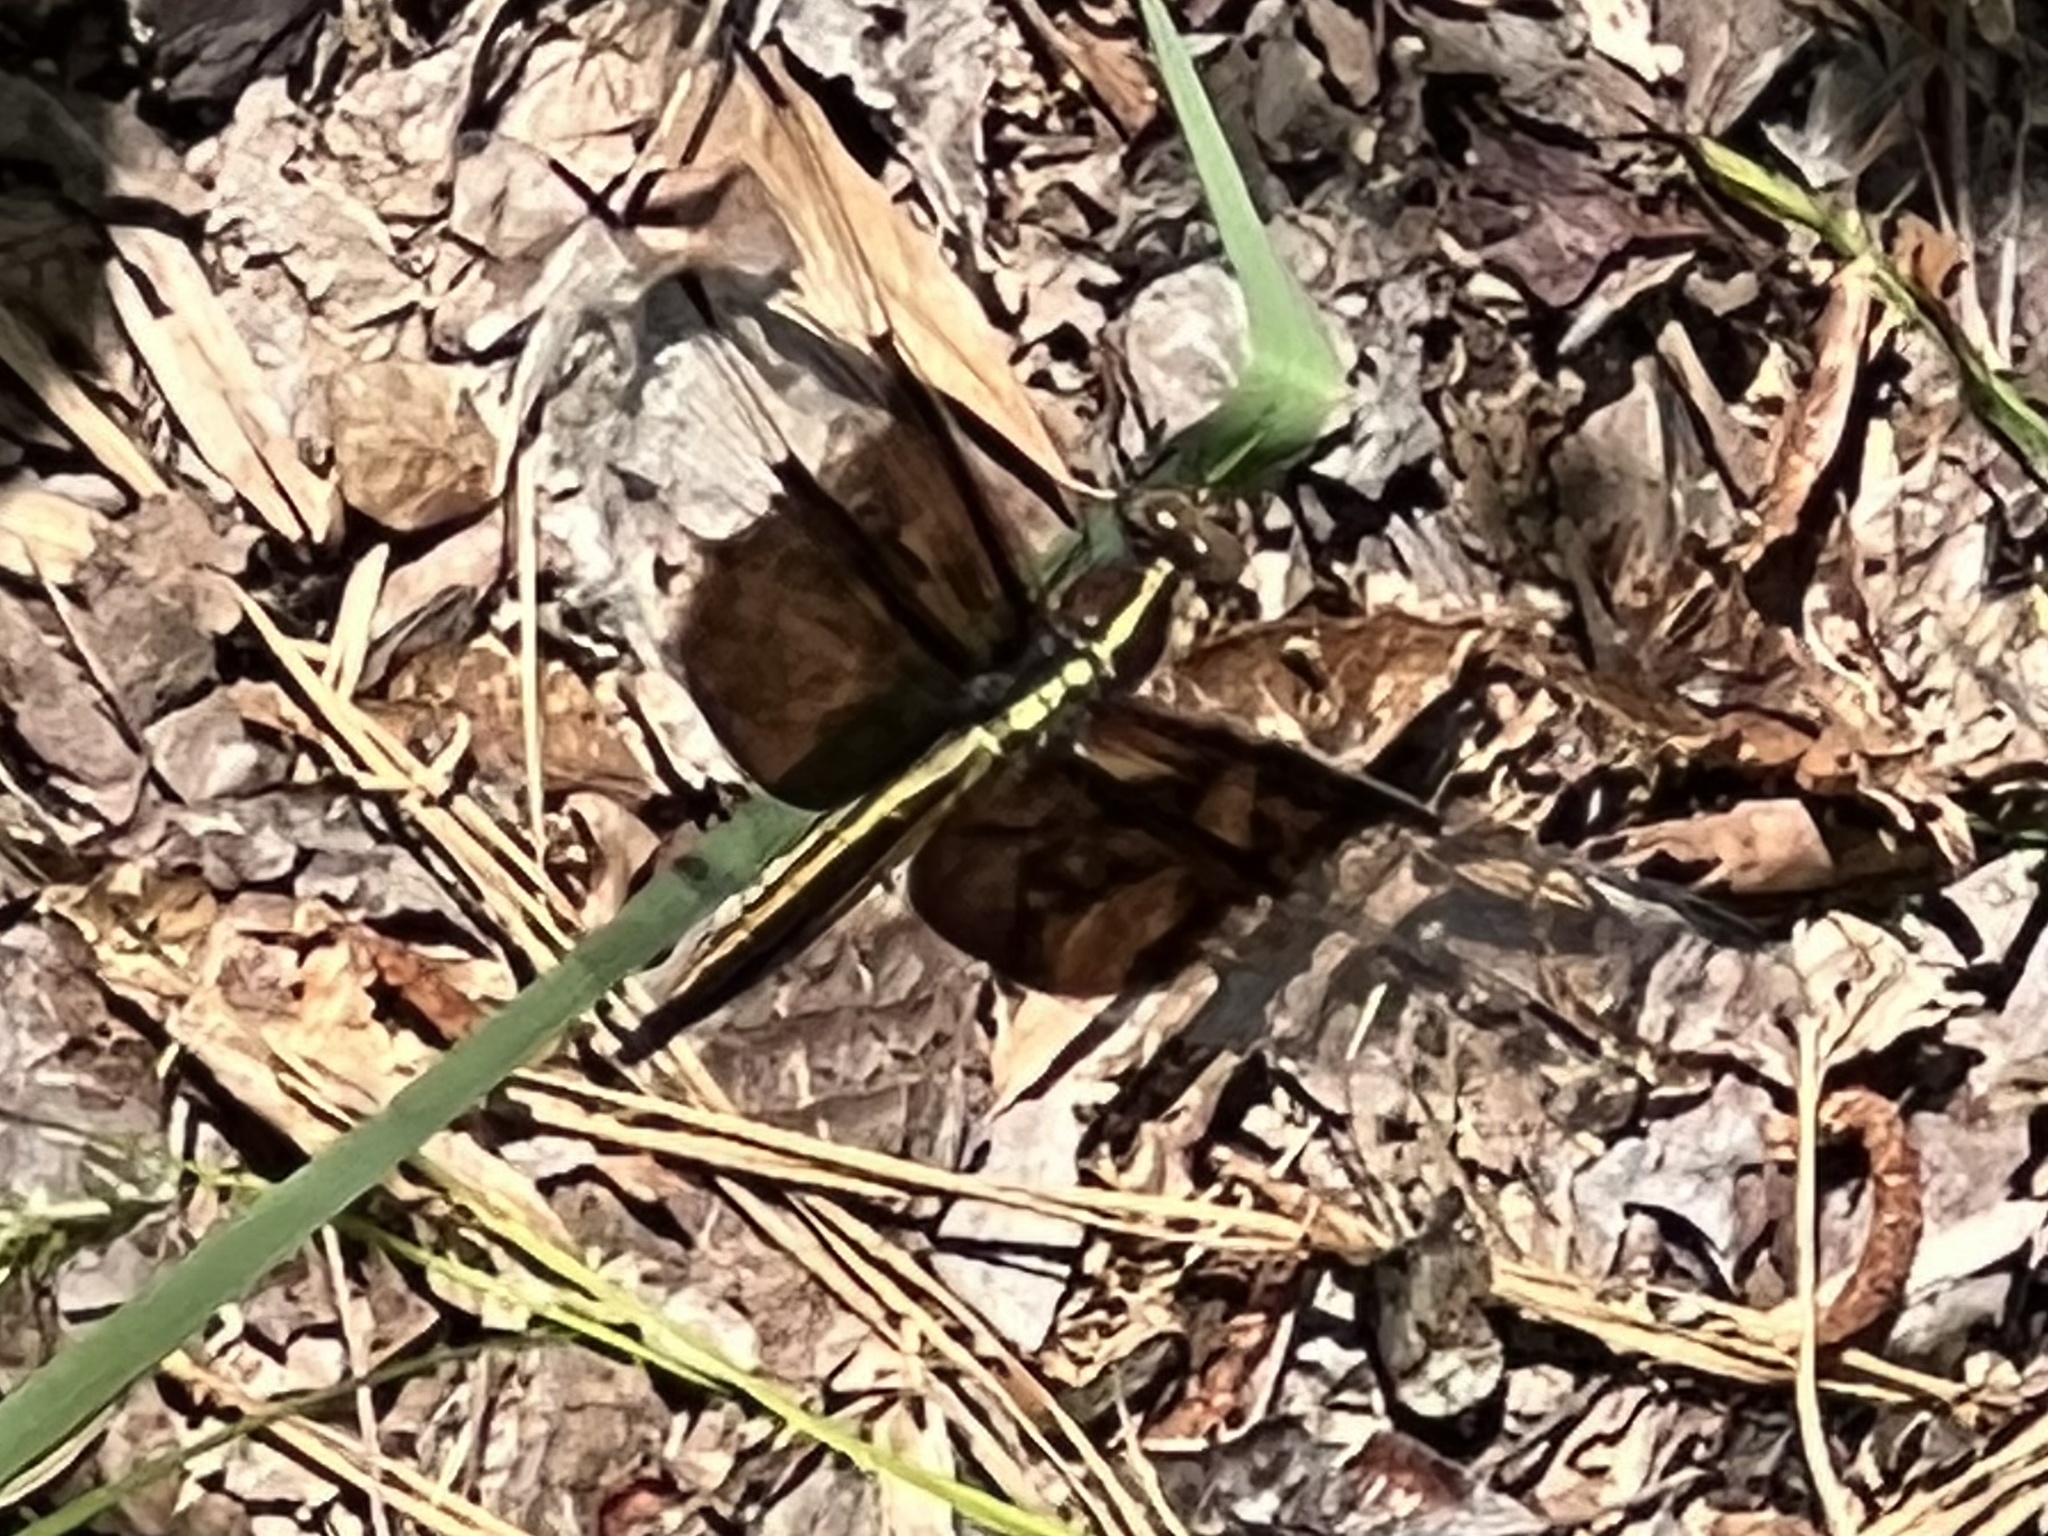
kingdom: Animalia
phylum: Arthropoda
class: Insecta
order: Odonata
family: Libellulidae
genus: Libellula
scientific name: Libellula luctuosa
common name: Widow skimmer
